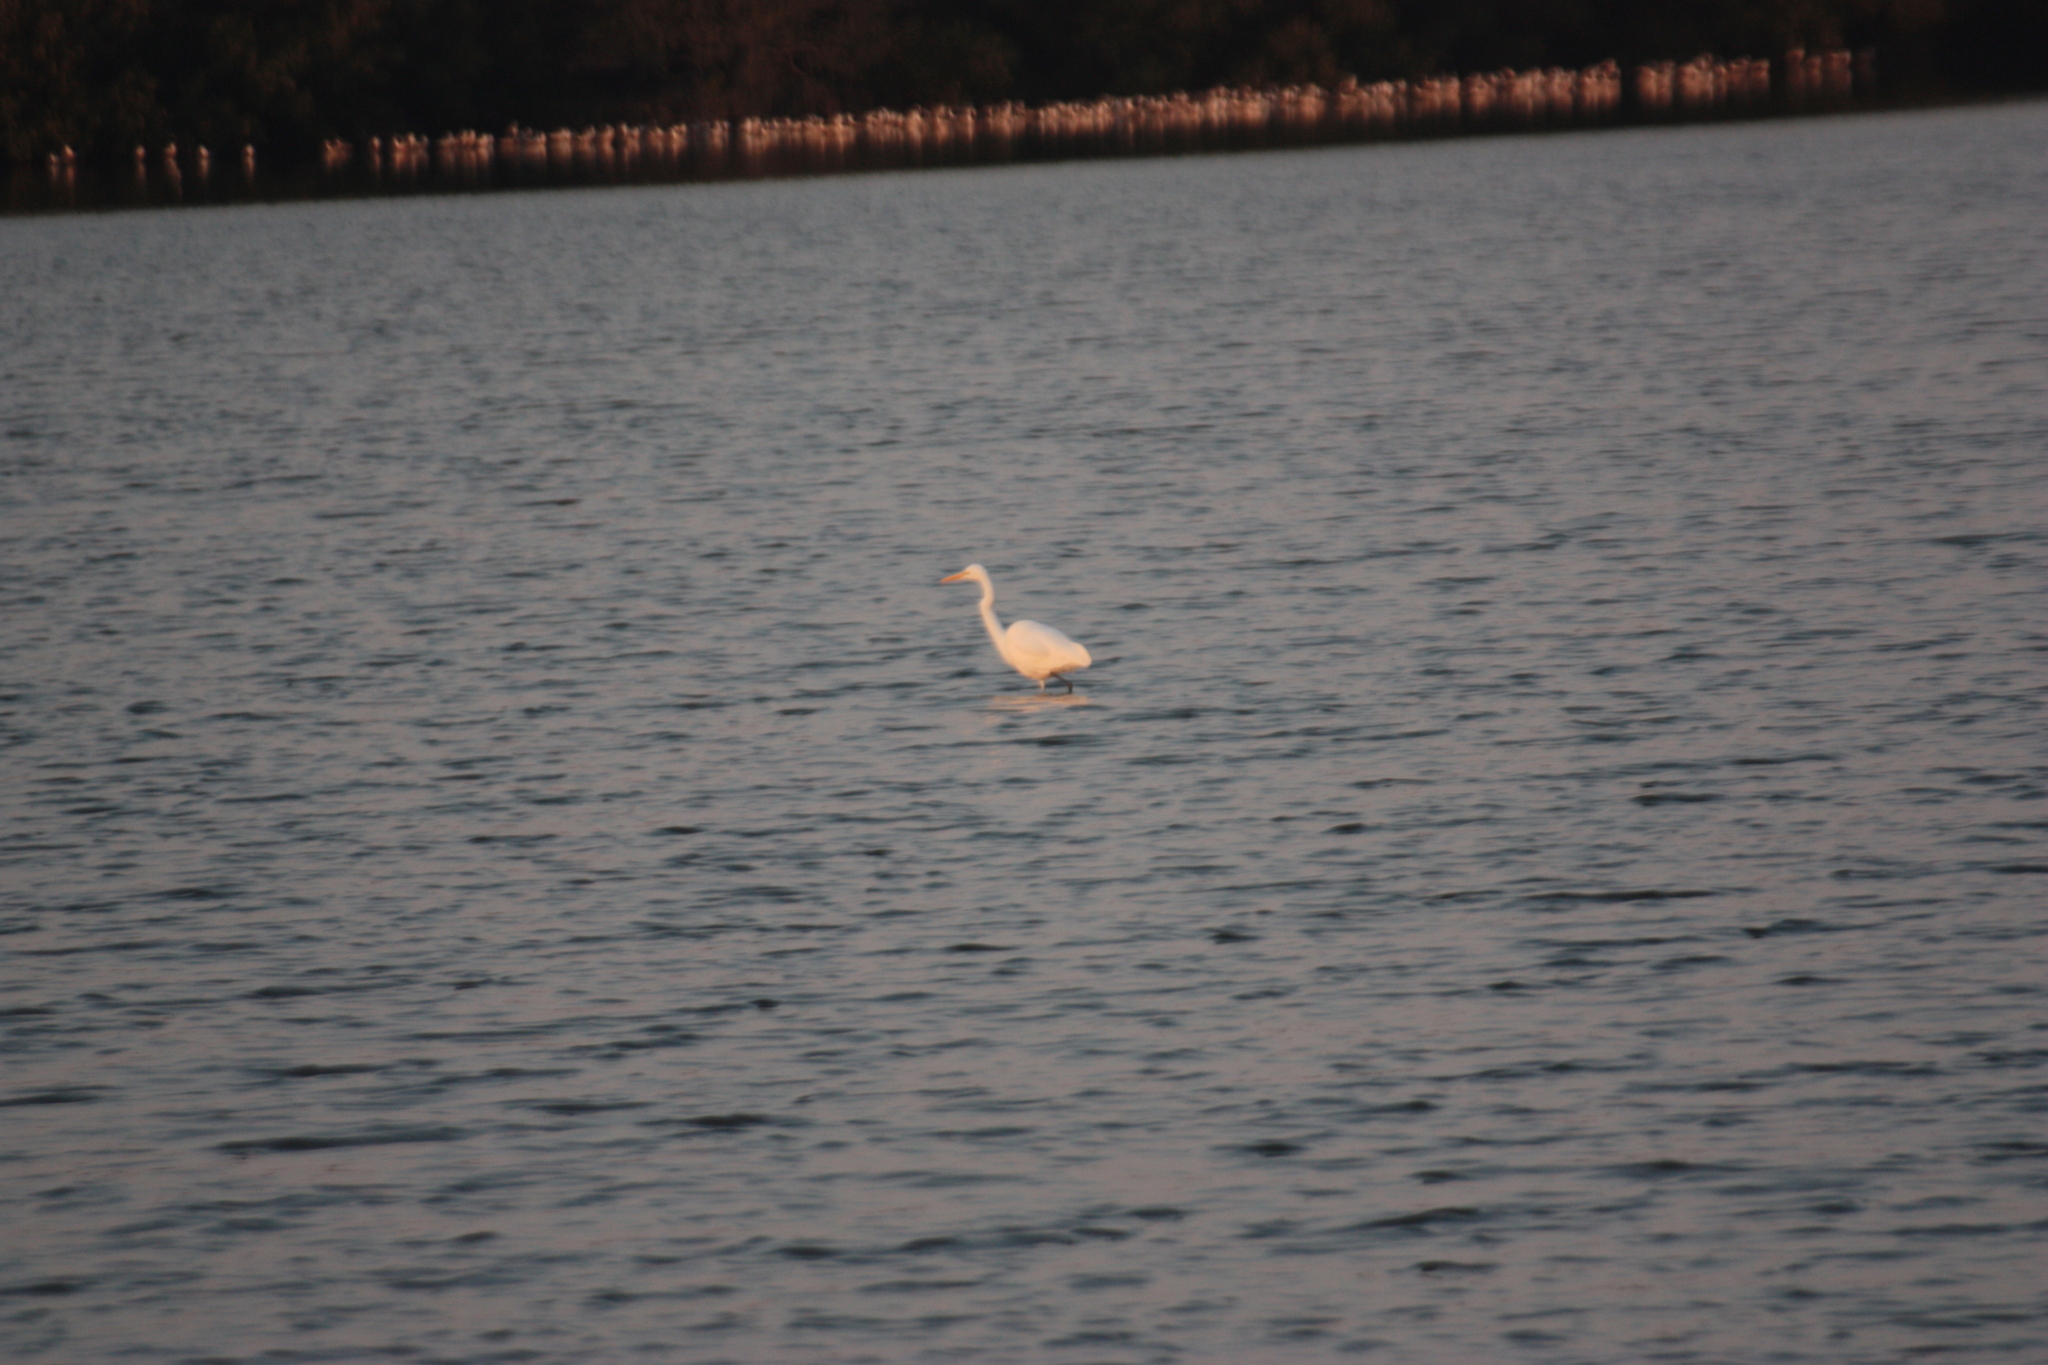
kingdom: Animalia
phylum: Chordata
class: Aves
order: Pelecaniformes
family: Ardeidae
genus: Ardea
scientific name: Ardea alba
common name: Great egret
